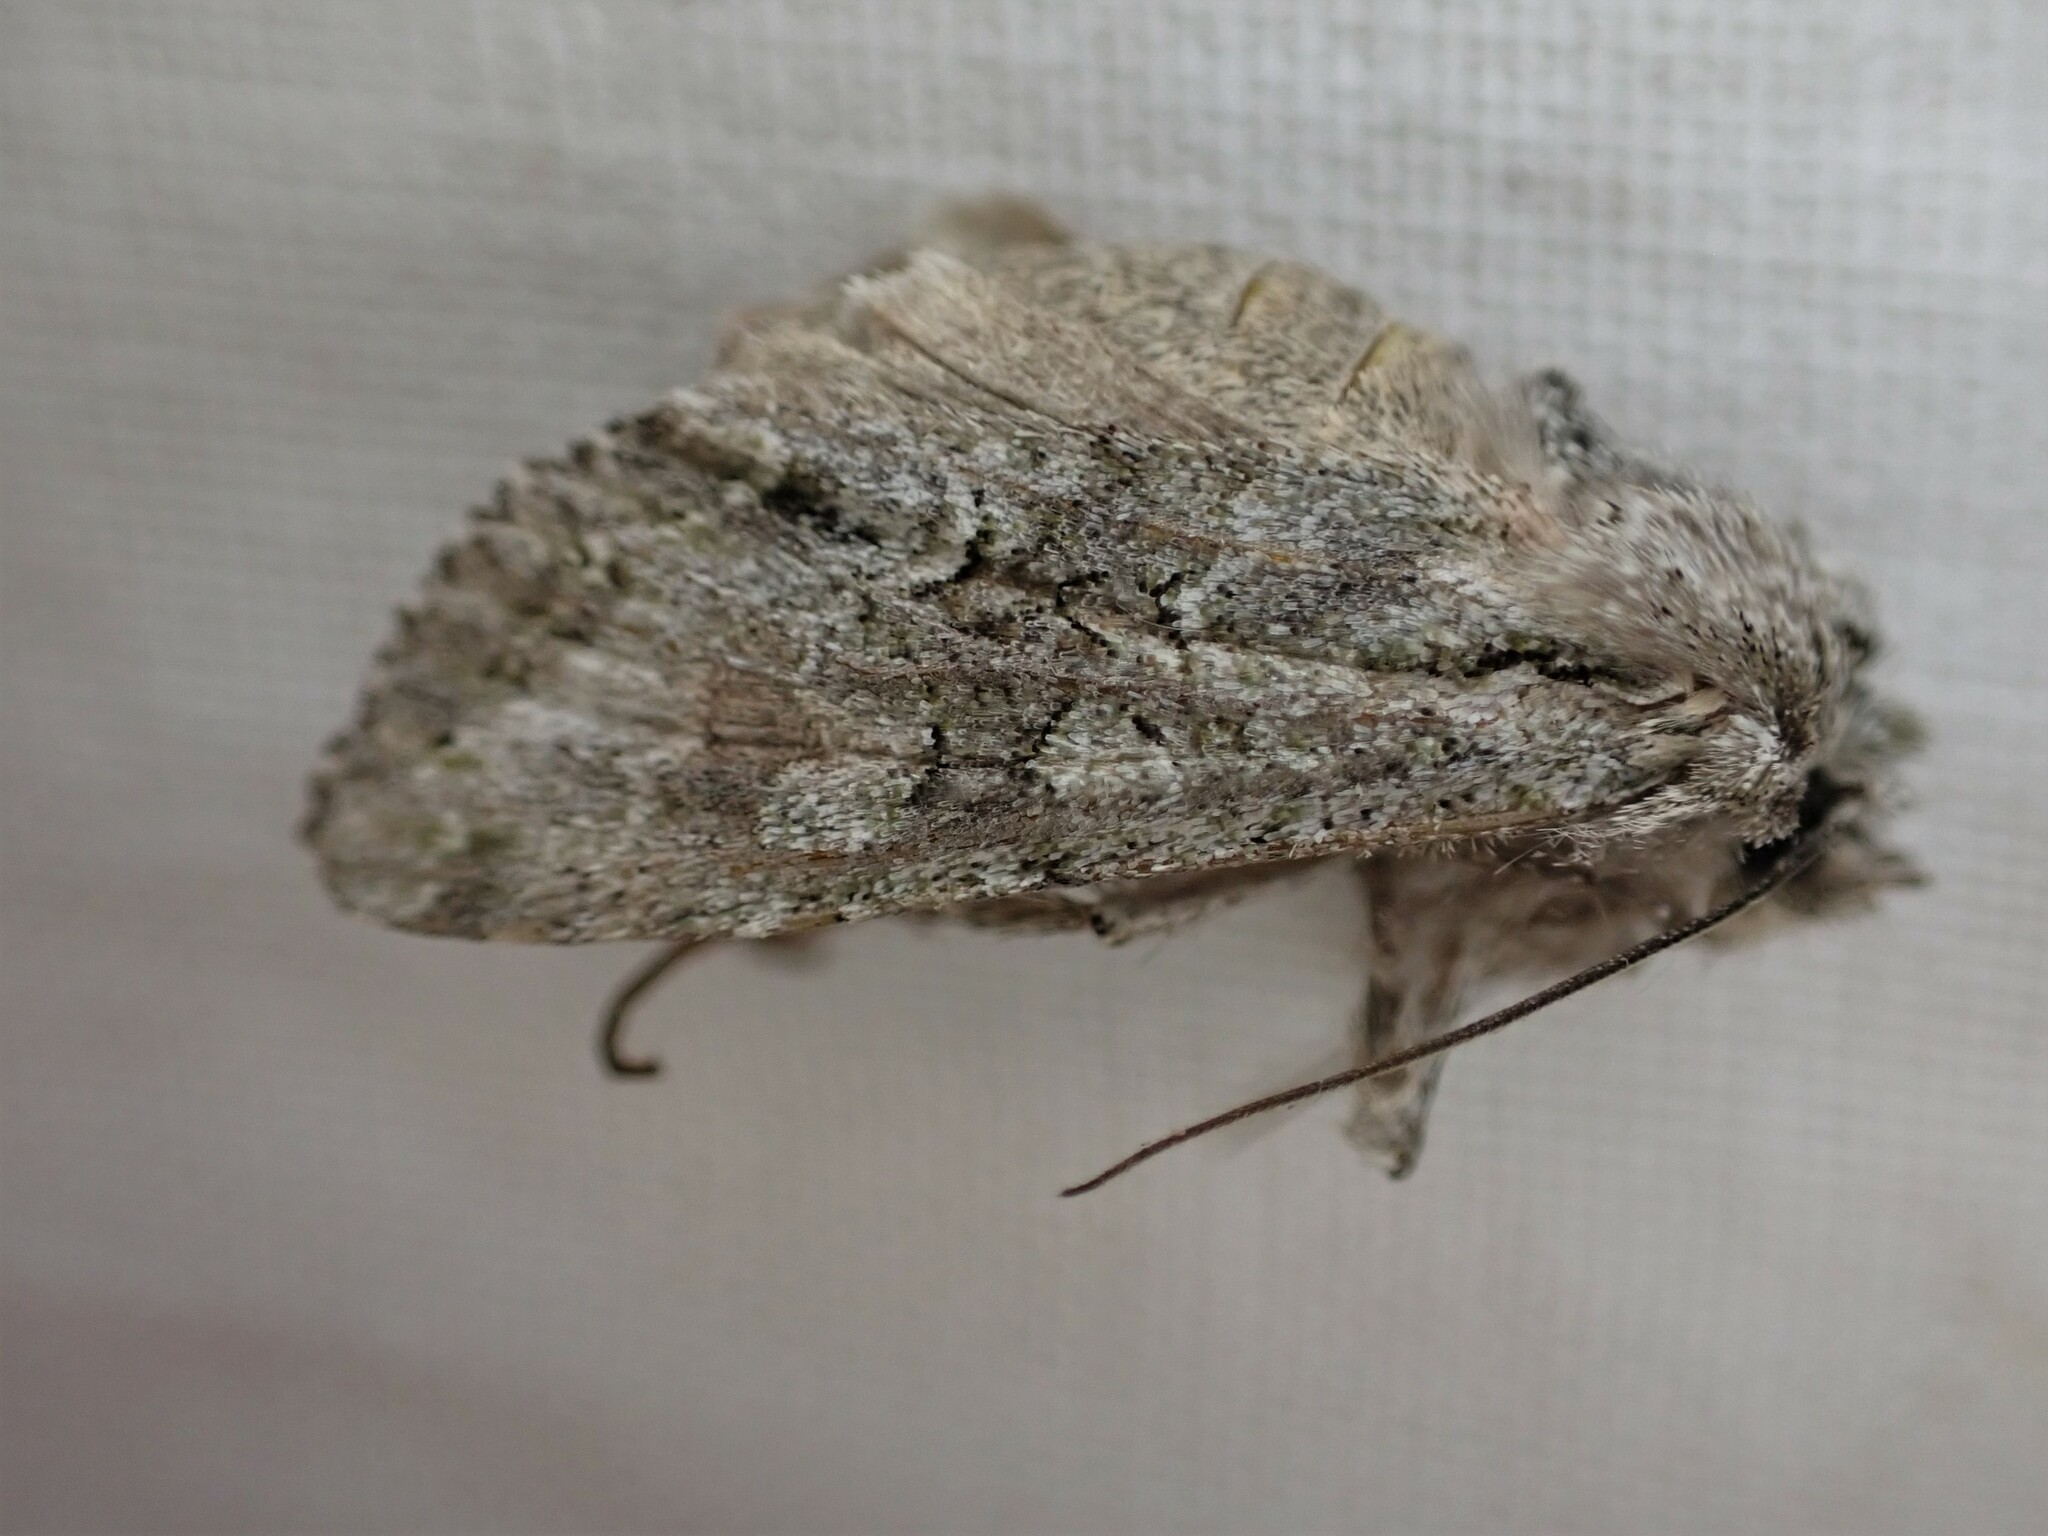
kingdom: Animalia
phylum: Arthropoda
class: Insecta
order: Lepidoptera
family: Noctuidae
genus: Ichneutica
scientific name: Ichneutica mutans
